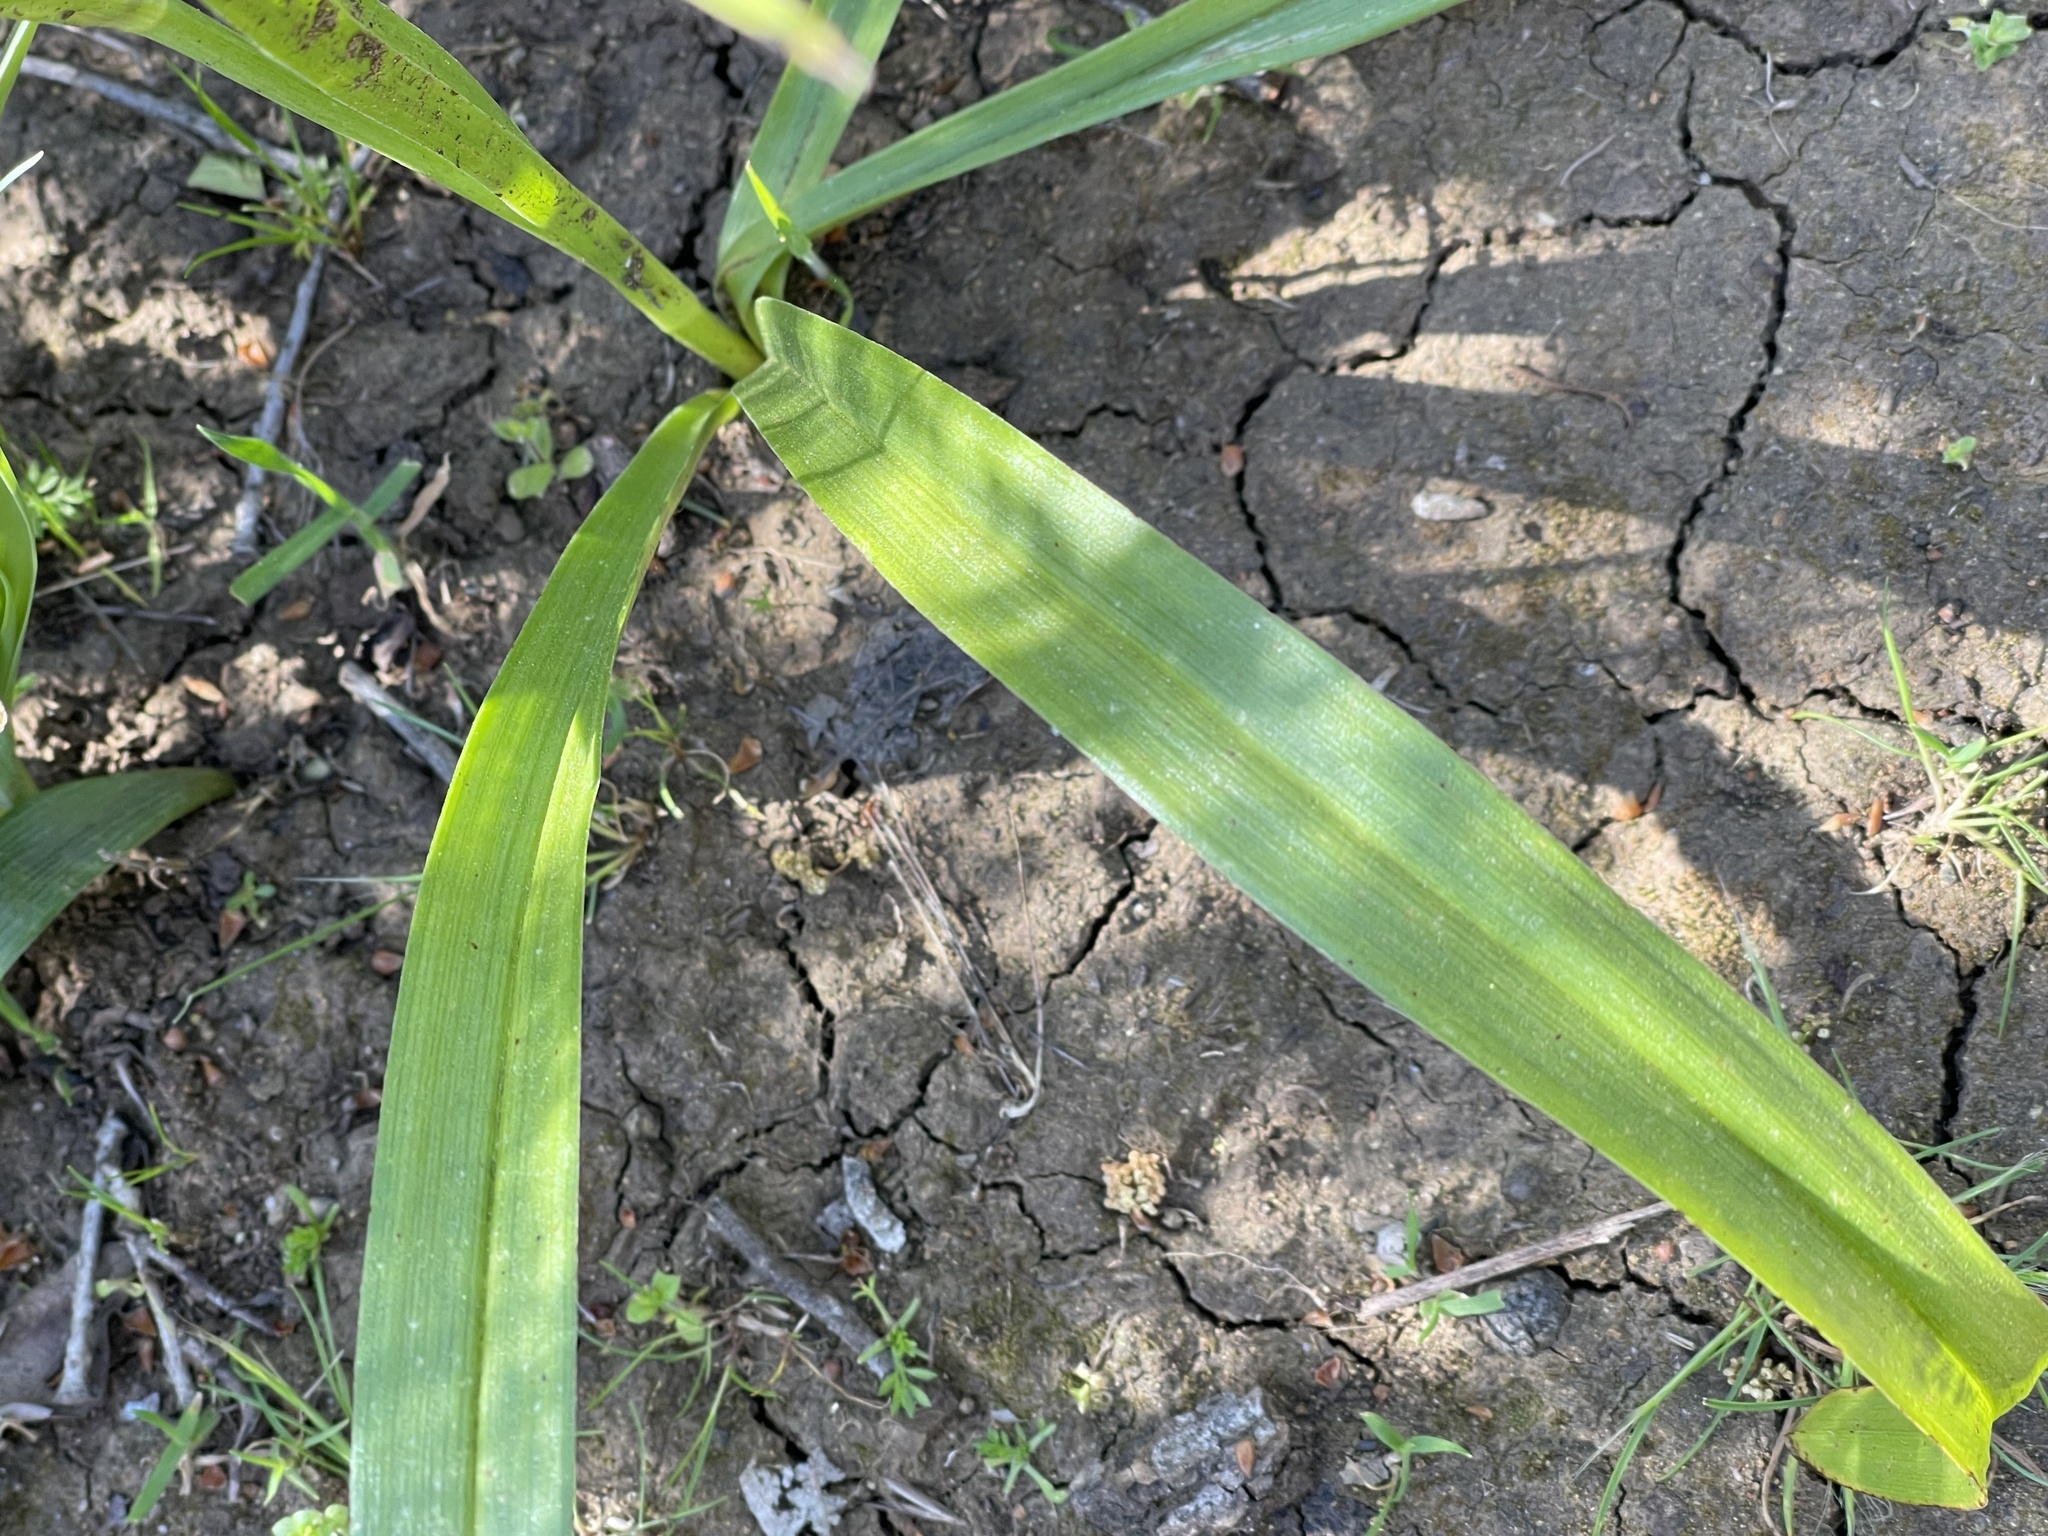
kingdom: Plantae
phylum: Tracheophyta
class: Liliopsida
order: Liliales
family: Melanthiaceae
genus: Toxicoscordion
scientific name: Toxicoscordion fremontii
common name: Fremont's death camas
